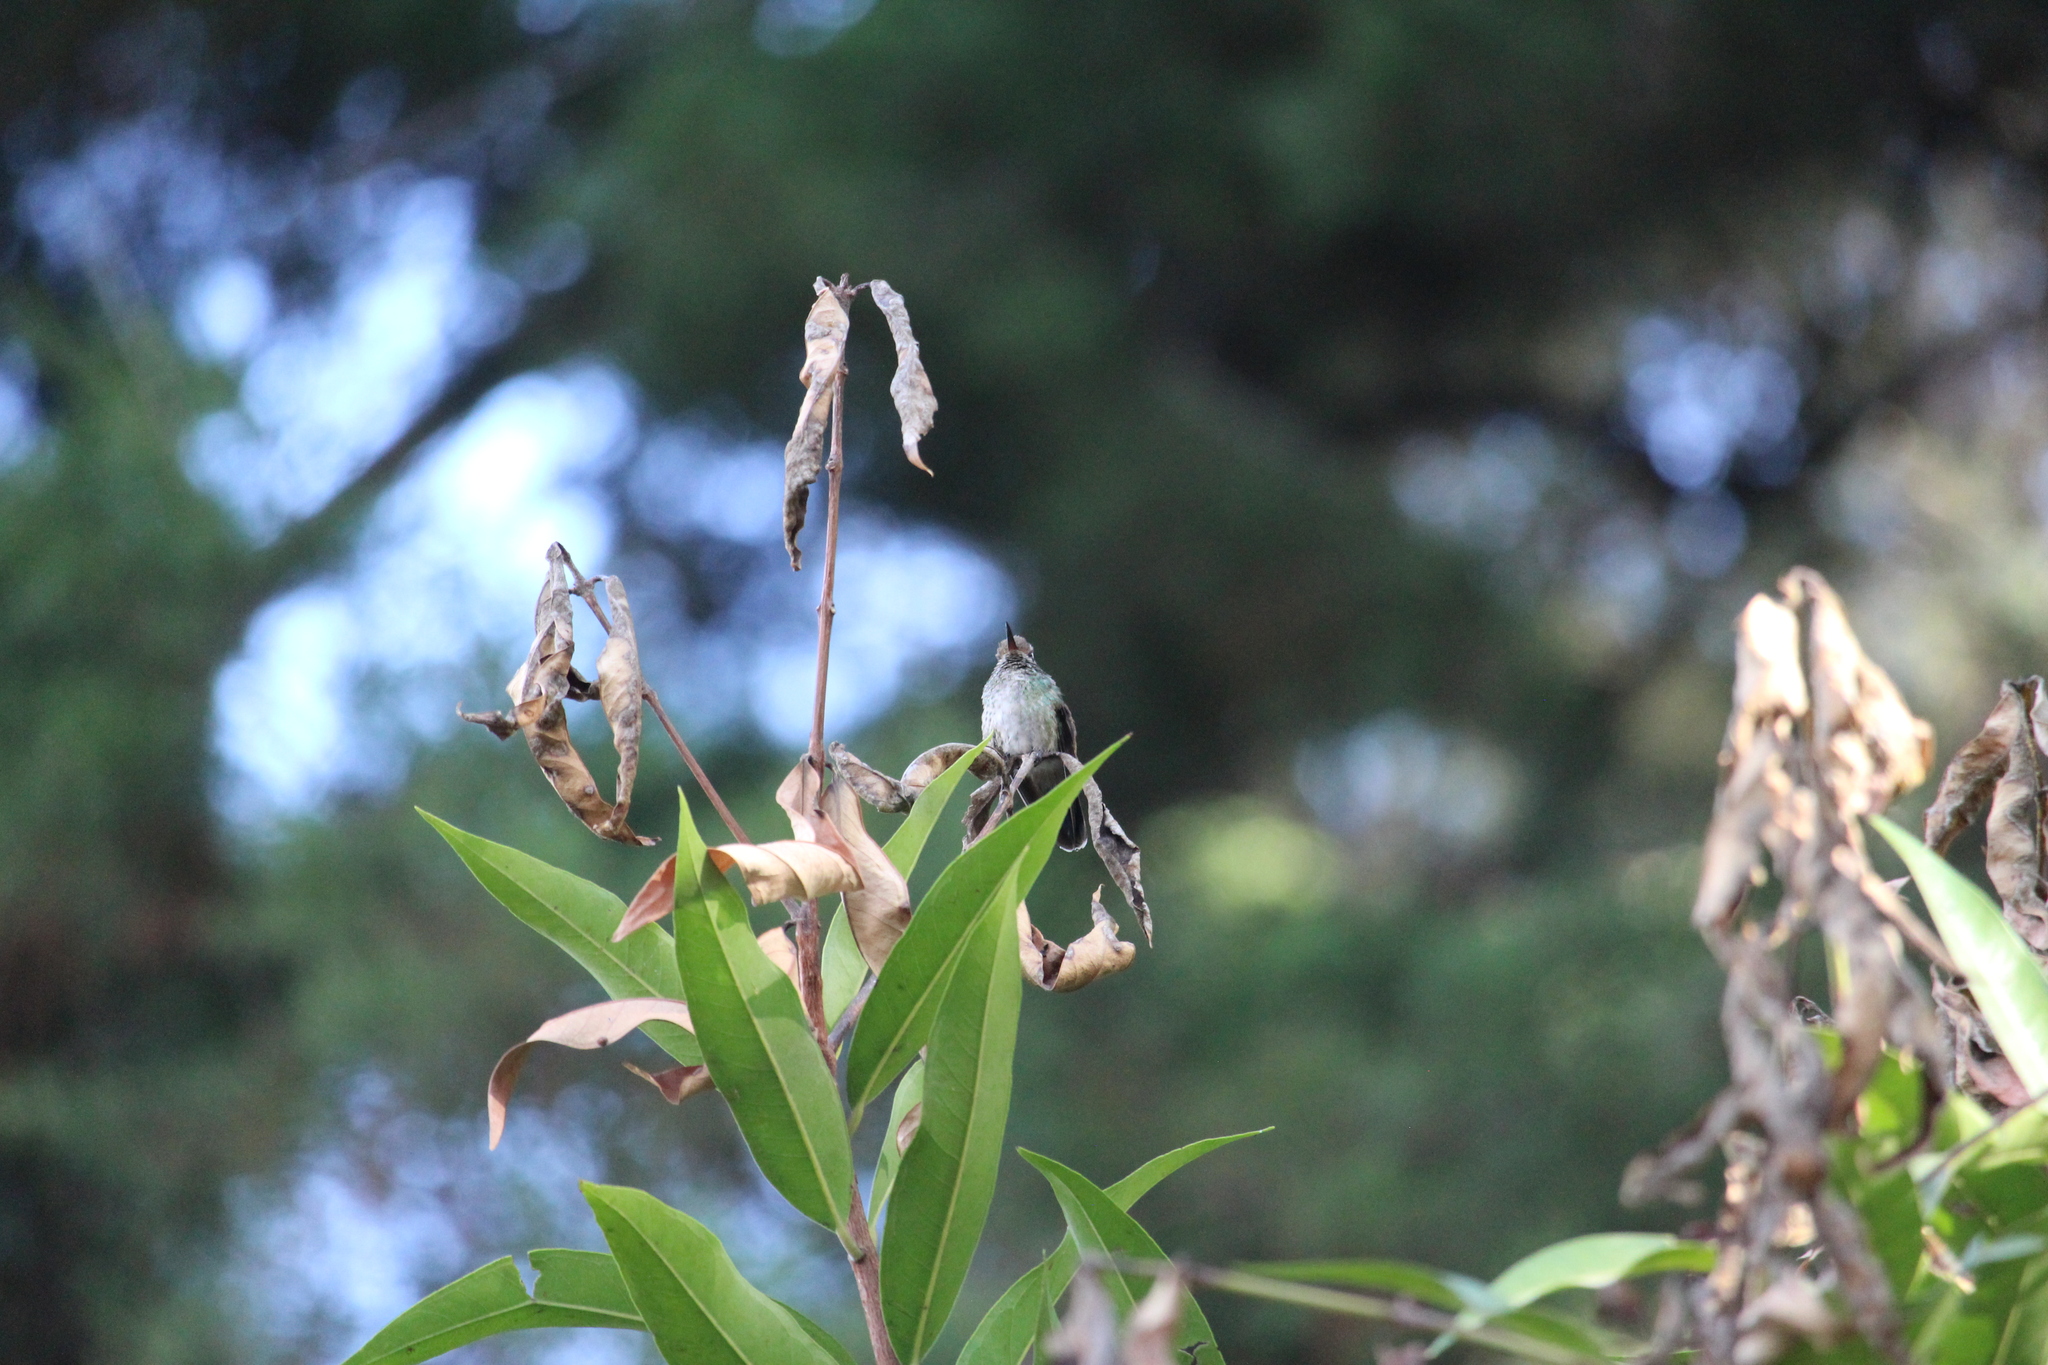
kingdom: Animalia
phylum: Chordata
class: Aves
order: Apodiformes
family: Trochilidae
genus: Basilinna
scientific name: Basilinna leucotis
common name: White-eared hummingbird
